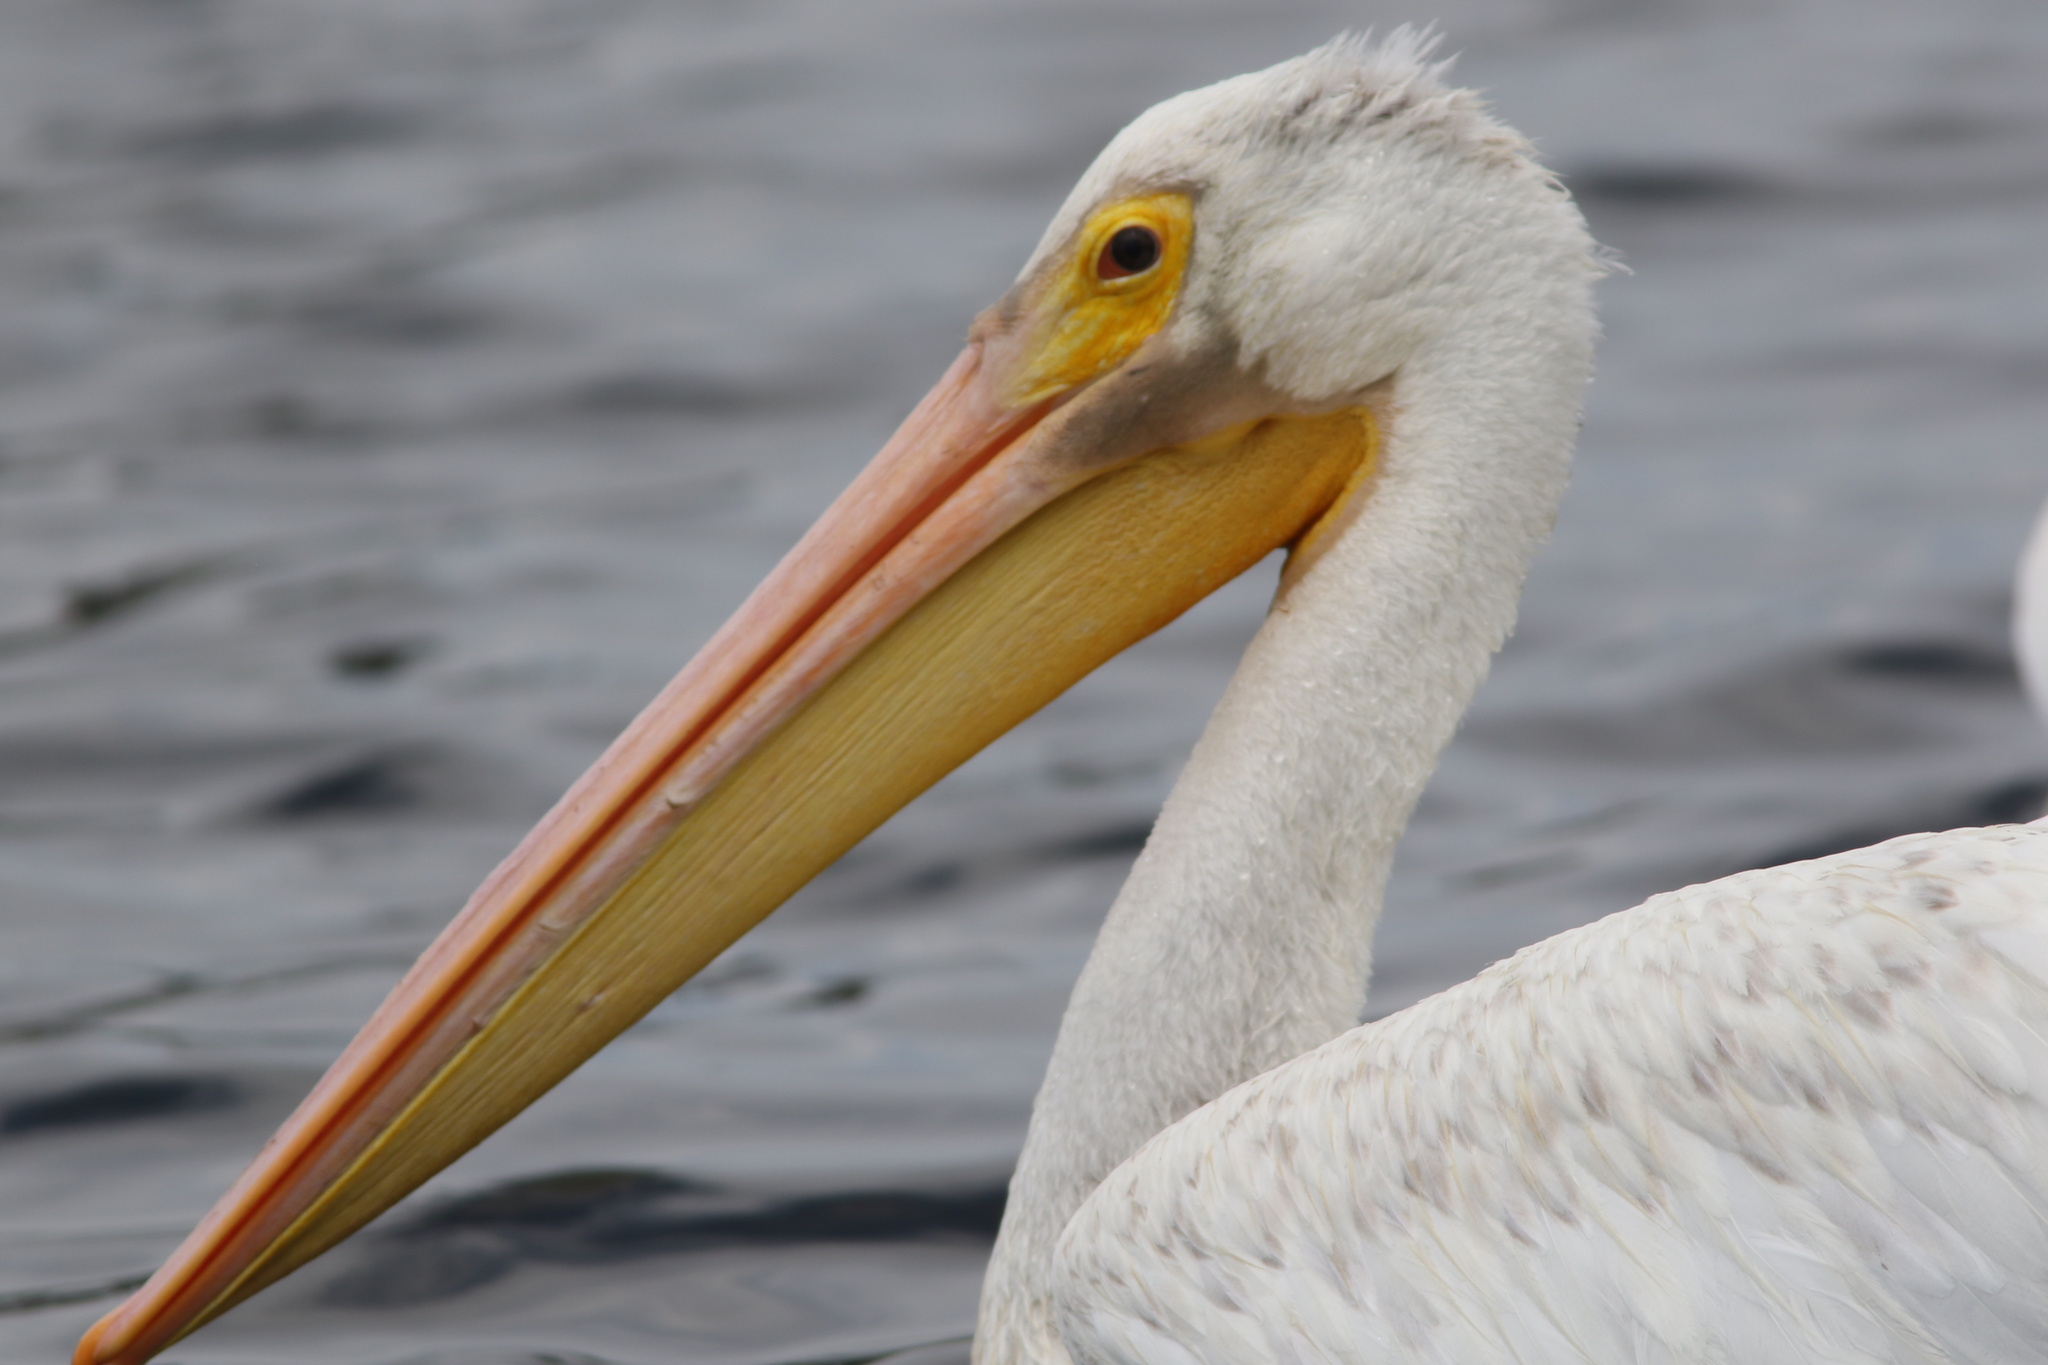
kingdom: Animalia
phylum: Chordata
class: Aves
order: Pelecaniformes
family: Pelecanidae
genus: Pelecanus
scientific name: Pelecanus erythrorhynchos
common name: American white pelican
